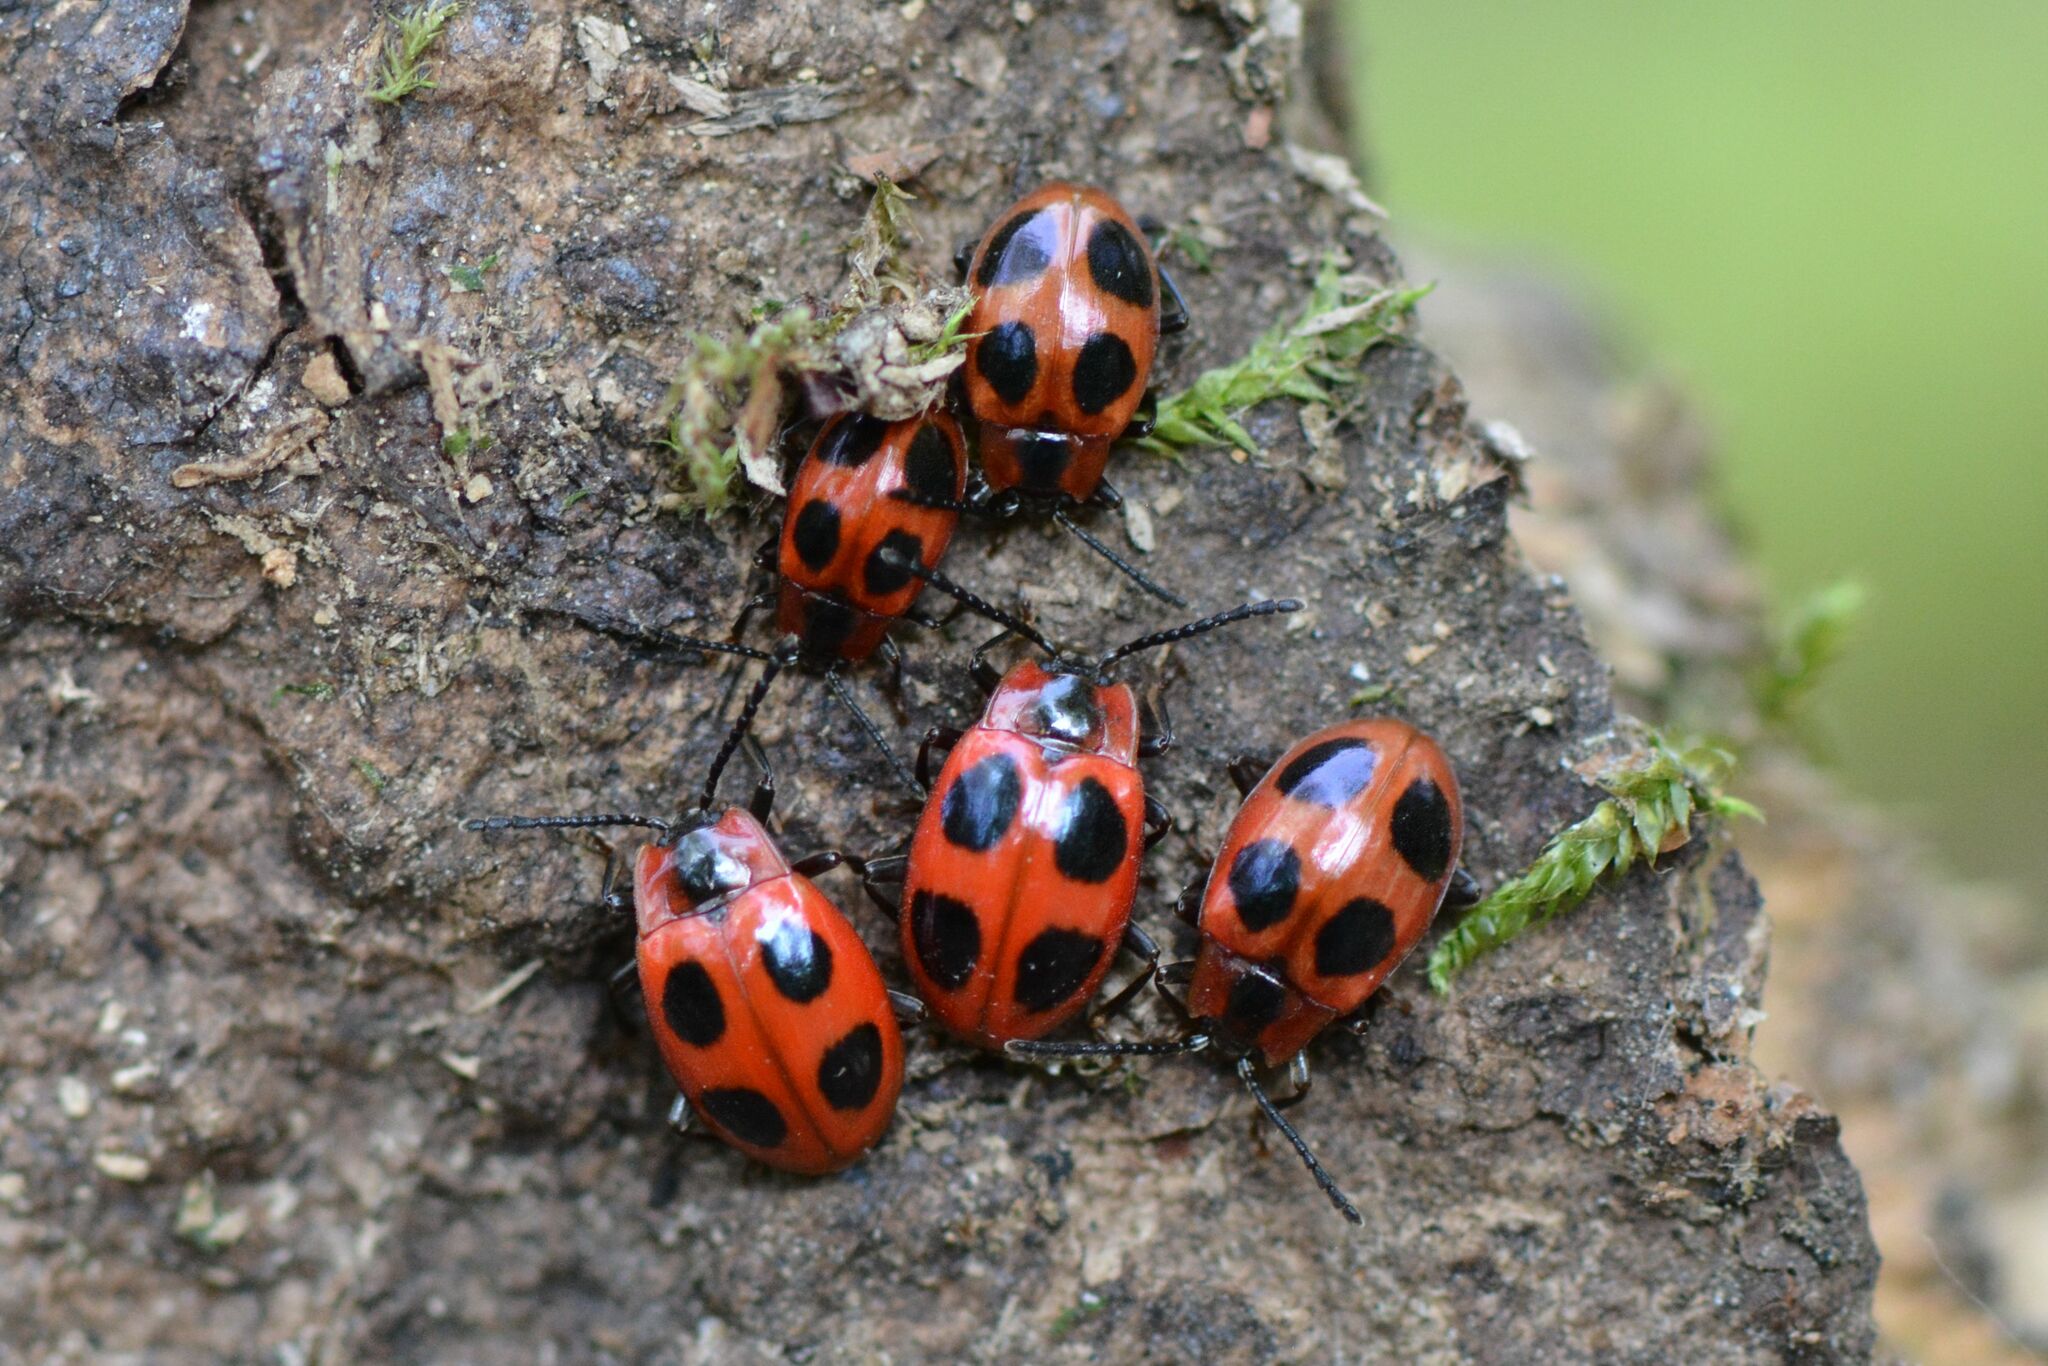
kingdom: Animalia
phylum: Arthropoda
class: Insecta
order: Coleoptera
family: Endomychidae
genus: Endomychus
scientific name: Endomychus coccineus
